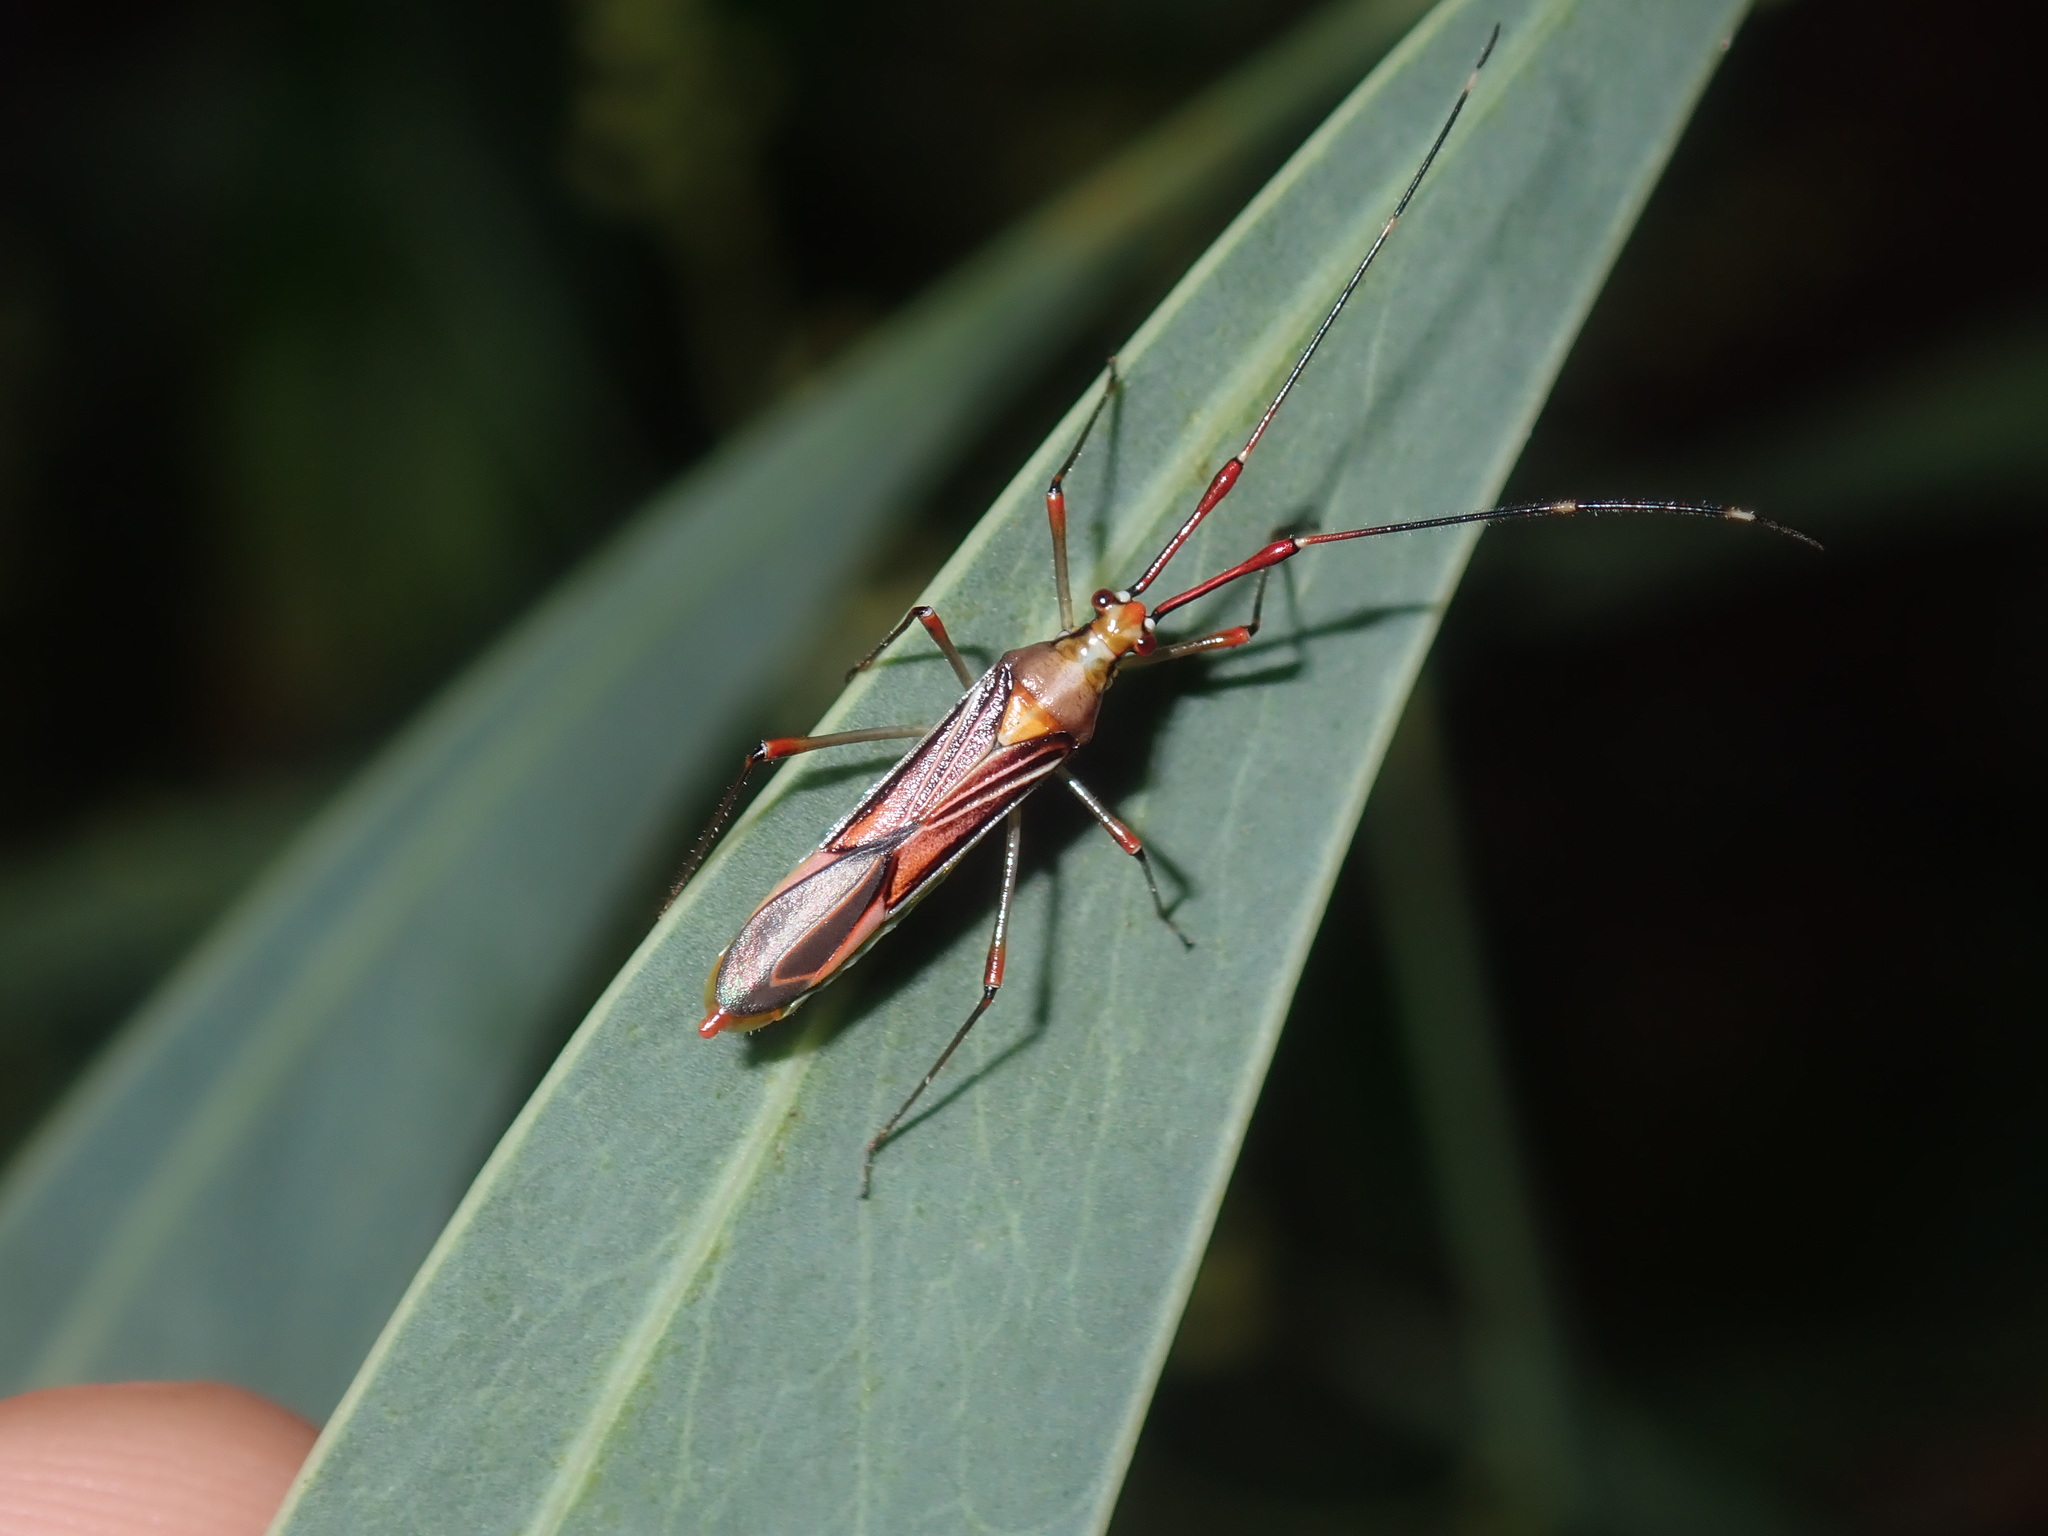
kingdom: Animalia
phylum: Arthropoda
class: Insecta
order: Hemiptera
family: Miridae
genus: Rayieria
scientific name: Rayieria
